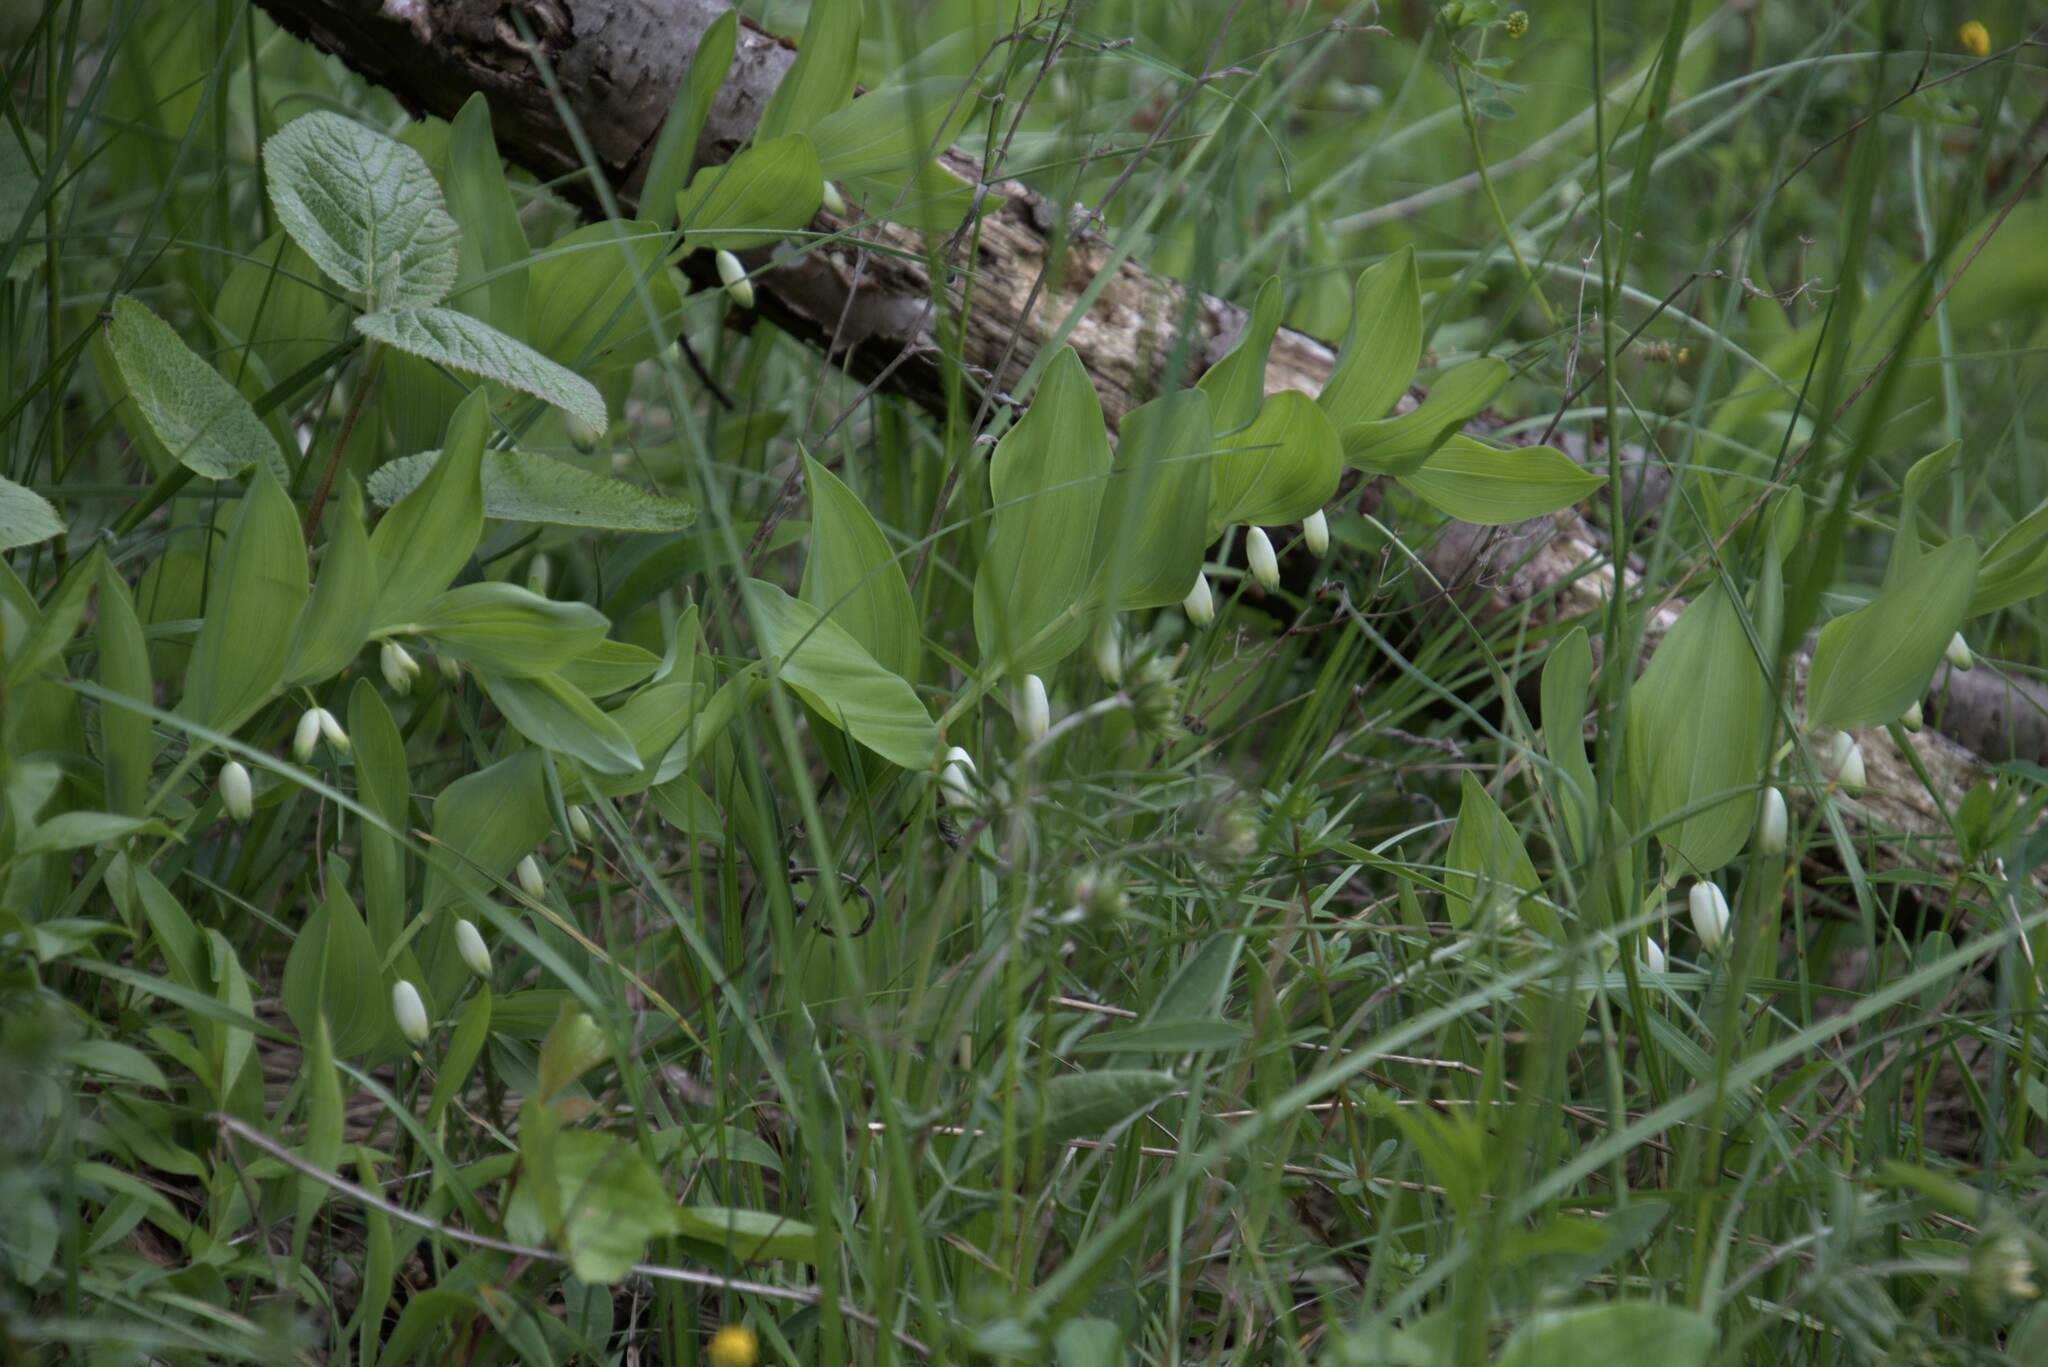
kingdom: Plantae
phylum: Tracheophyta
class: Liliopsida
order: Asparagales
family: Asparagaceae
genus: Polygonatum
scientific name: Polygonatum odoratum
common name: Angular solomon's-seal
